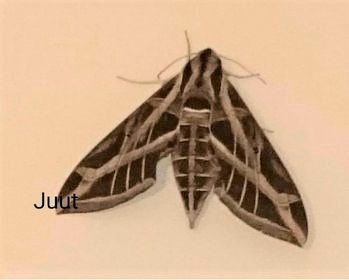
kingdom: Animalia
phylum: Arthropoda
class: Insecta
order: Lepidoptera
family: Sphingidae
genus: Eumorpha
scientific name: Eumorpha vitis
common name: Vine sphinx
